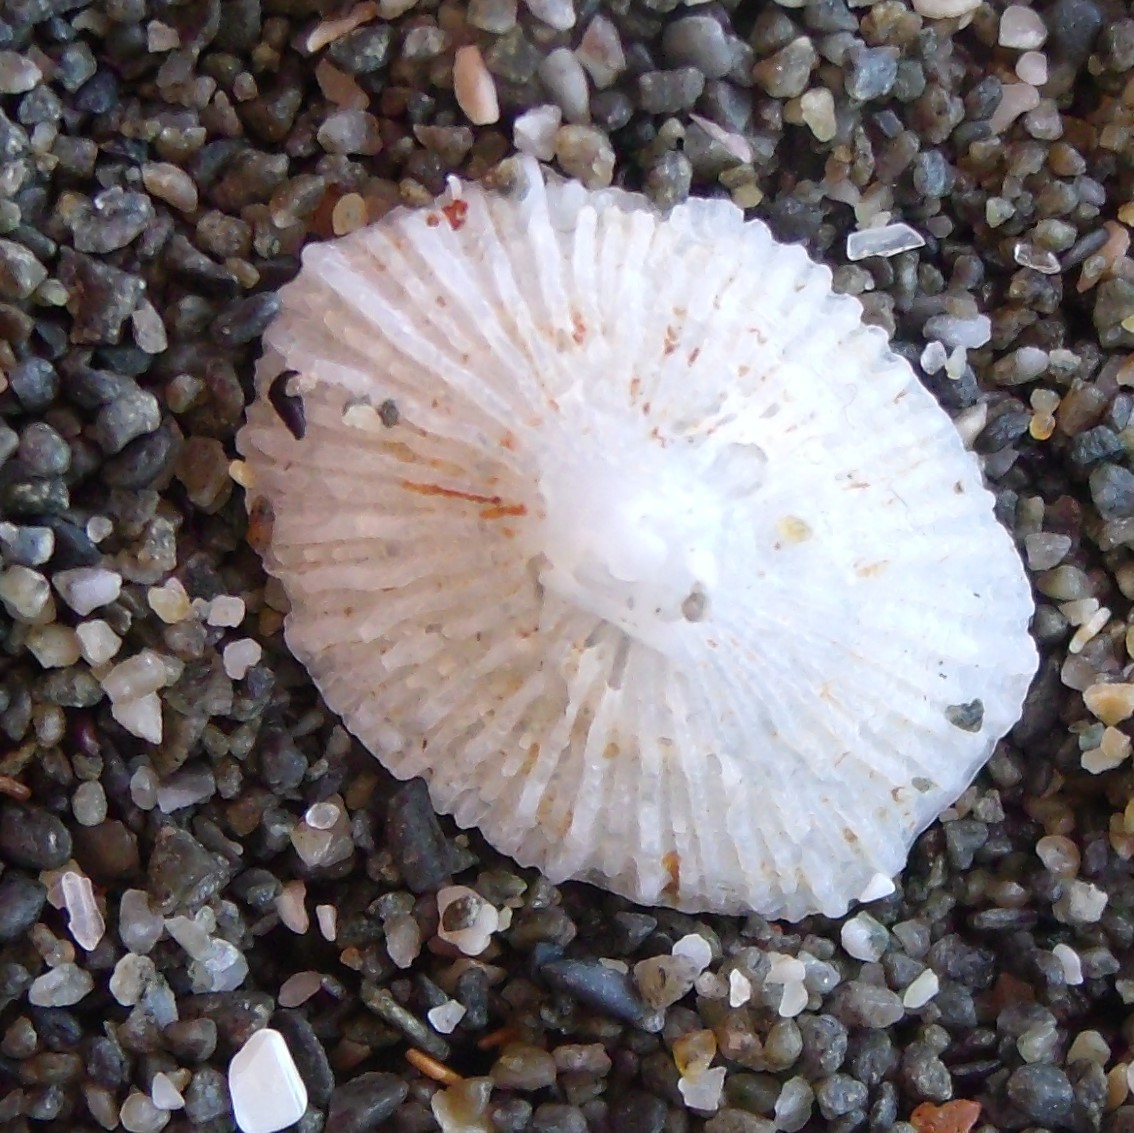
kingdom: Animalia
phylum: Mollusca
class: Gastropoda
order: Ellobiida
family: Trimusculidae
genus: Trimusculus
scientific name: Trimusculus conicus
